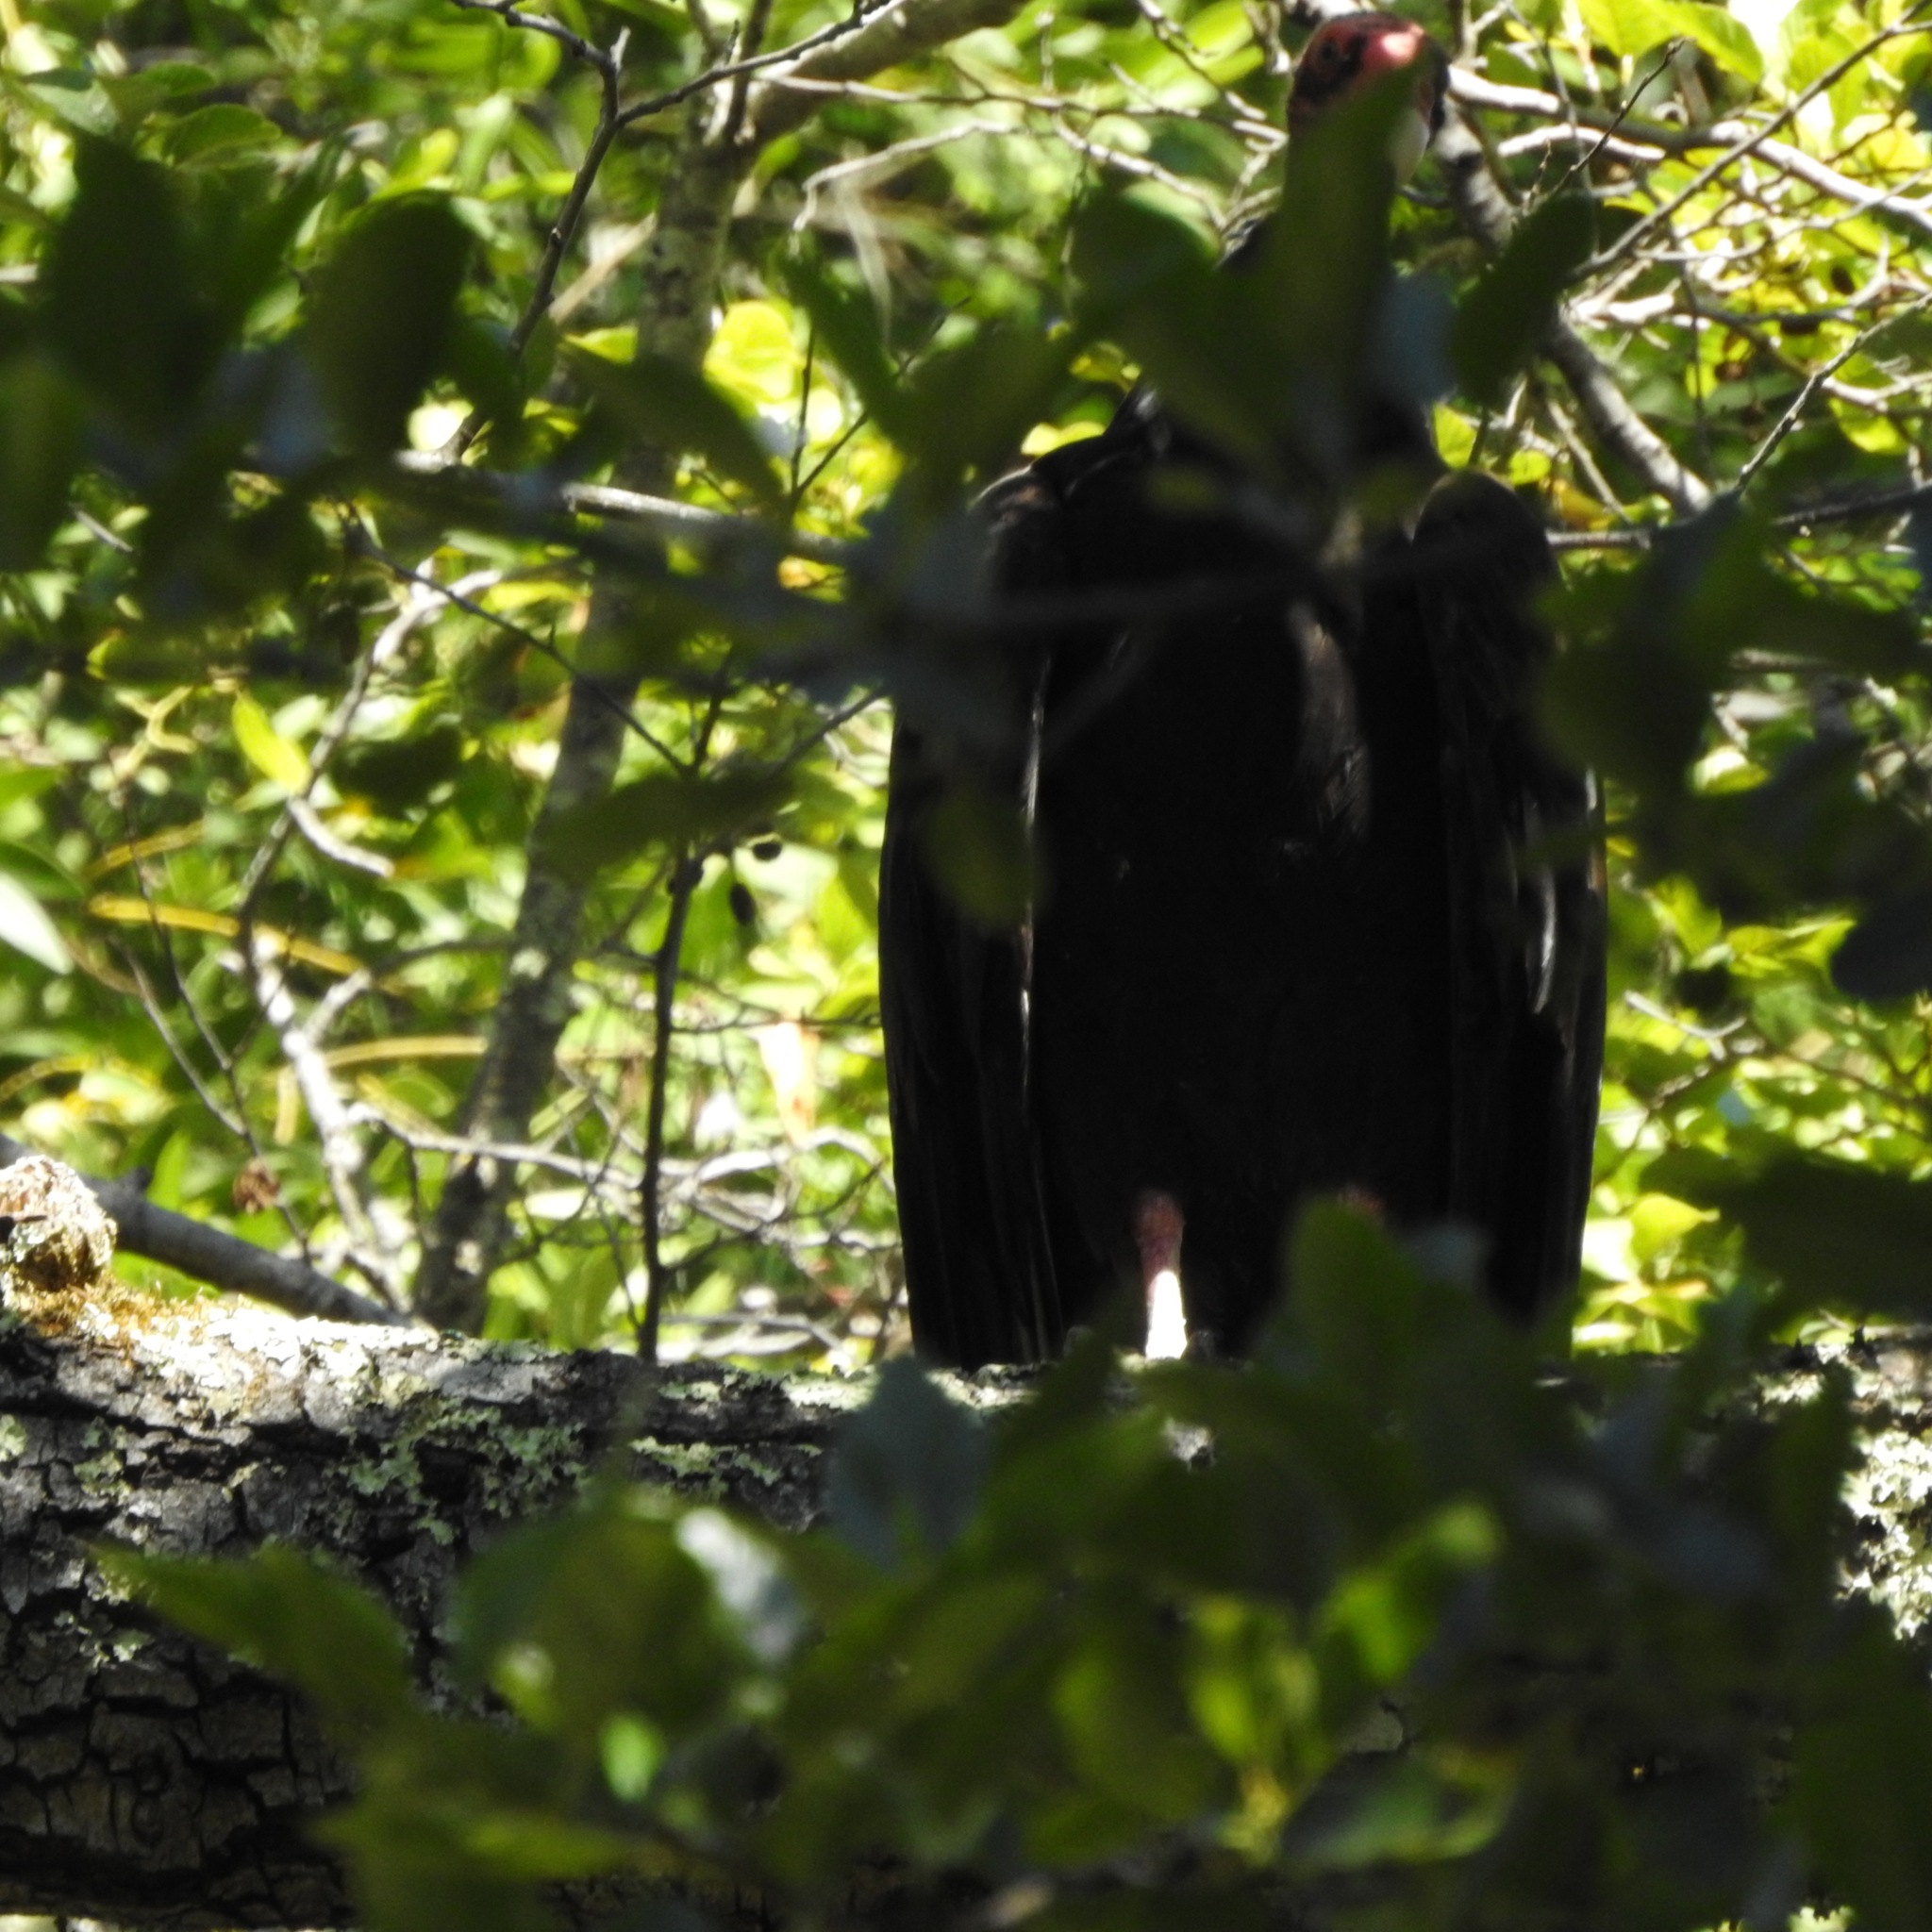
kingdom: Animalia
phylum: Chordata
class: Aves
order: Accipitriformes
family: Cathartidae
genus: Cathartes
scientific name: Cathartes aura
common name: Turkey vulture
